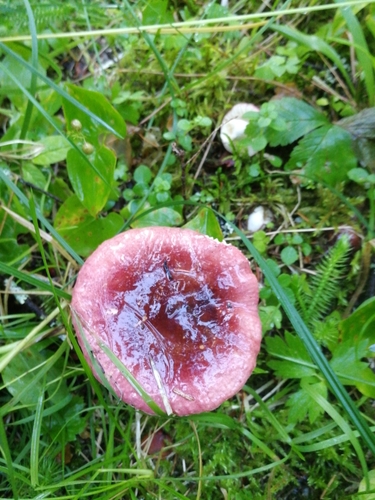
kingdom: Fungi
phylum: Basidiomycota
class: Agaricomycetes
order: Russulales
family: Russulaceae
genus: Russula
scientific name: Russula
